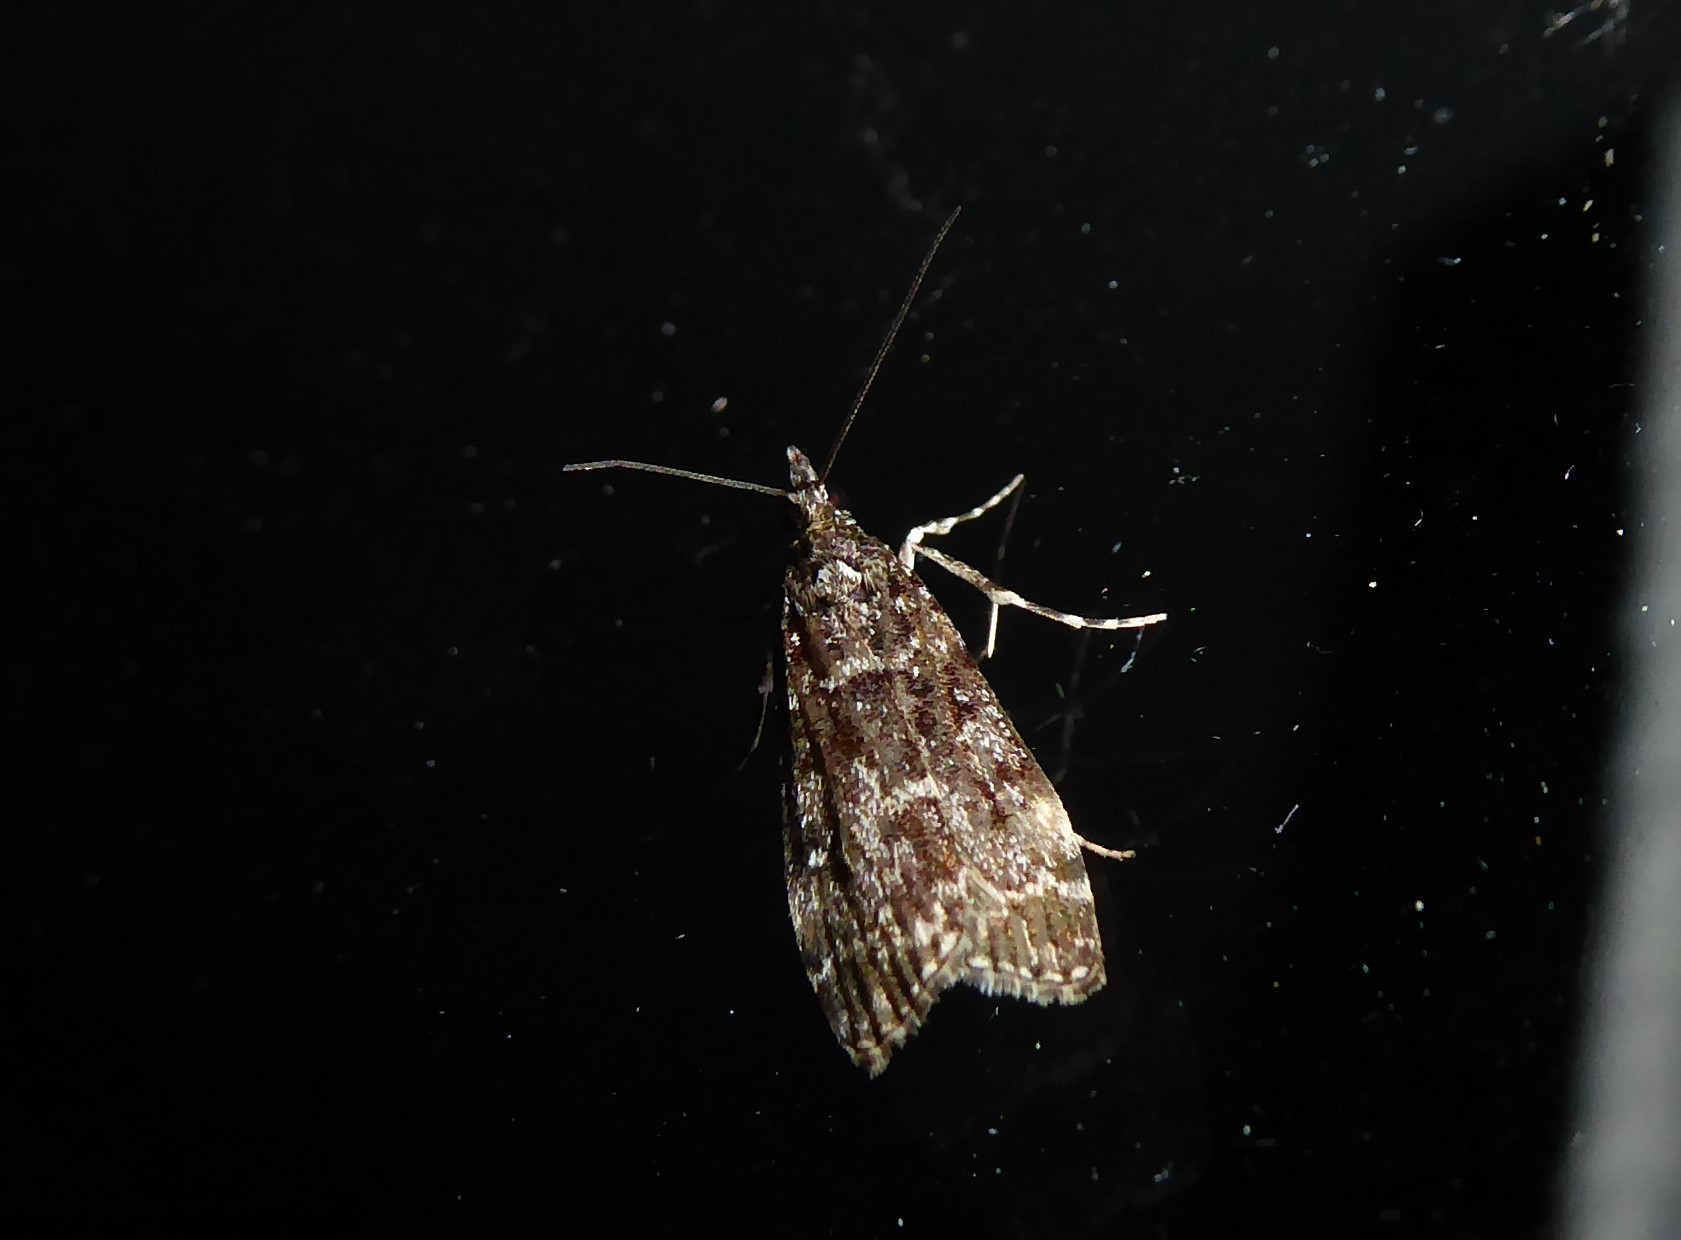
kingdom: Animalia
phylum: Arthropoda
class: Insecta
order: Lepidoptera
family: Crambidae
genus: Eudonia
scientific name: Eudonia philerga
